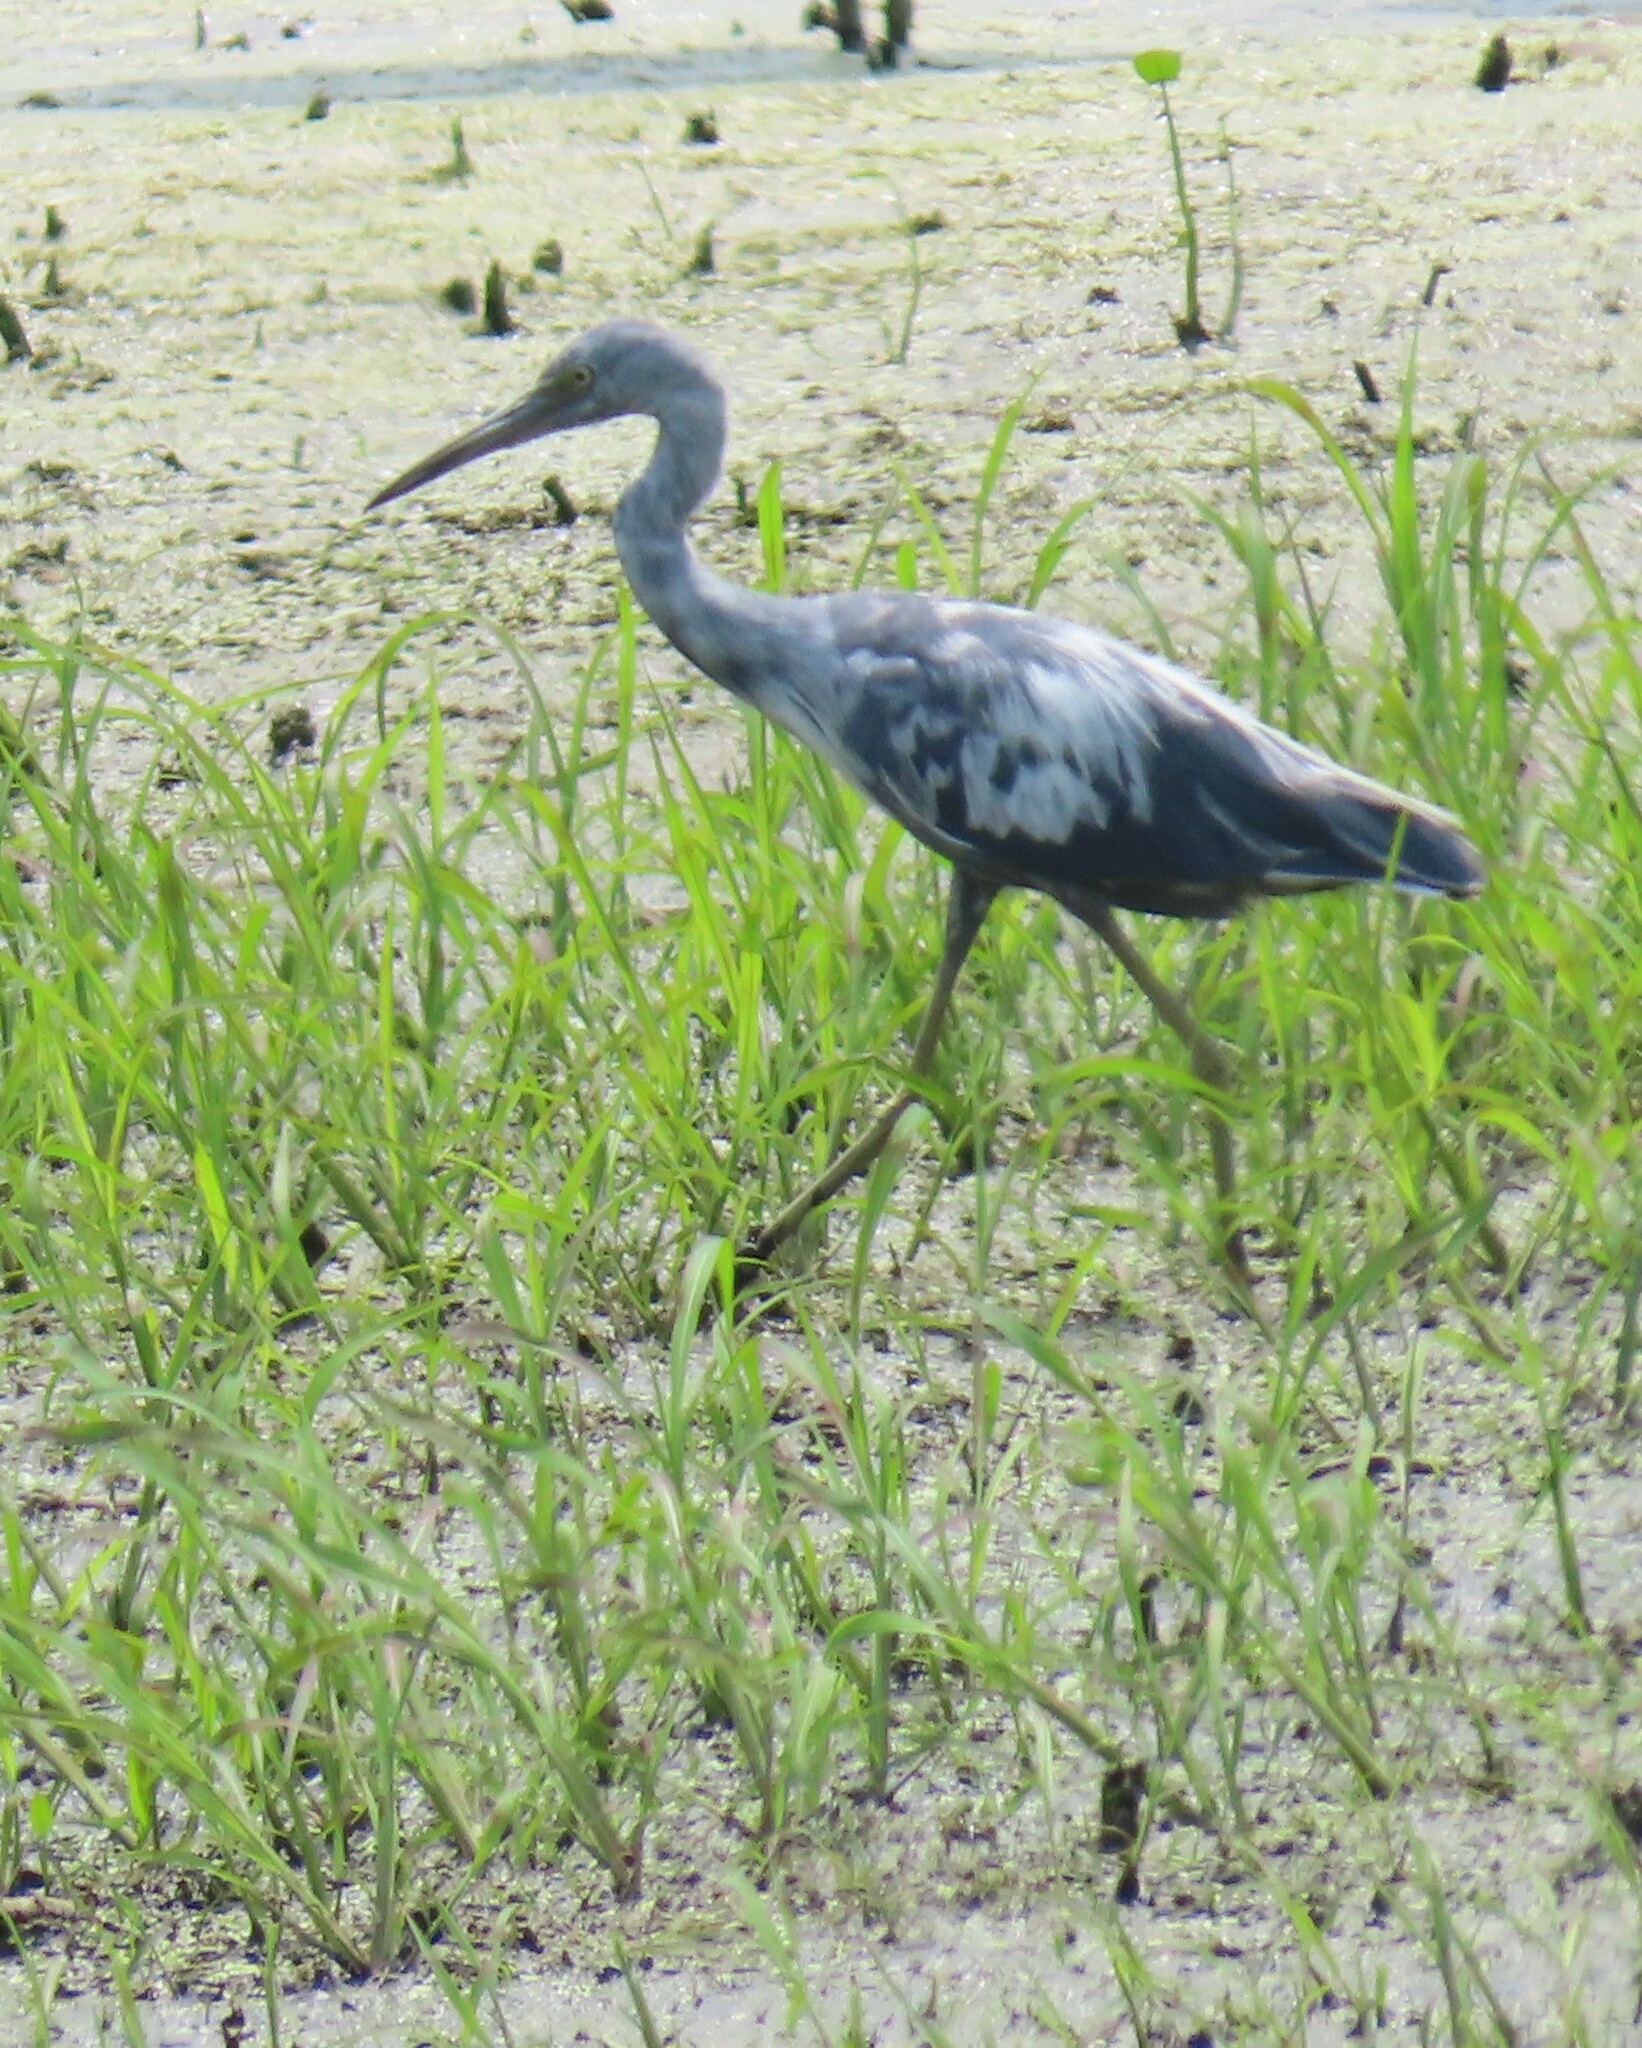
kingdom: Animalia
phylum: Chordata
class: Aves
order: Pelecaniformes
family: Ardeidae
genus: Egretta
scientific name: Egretta caerulea
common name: Little blue heron
